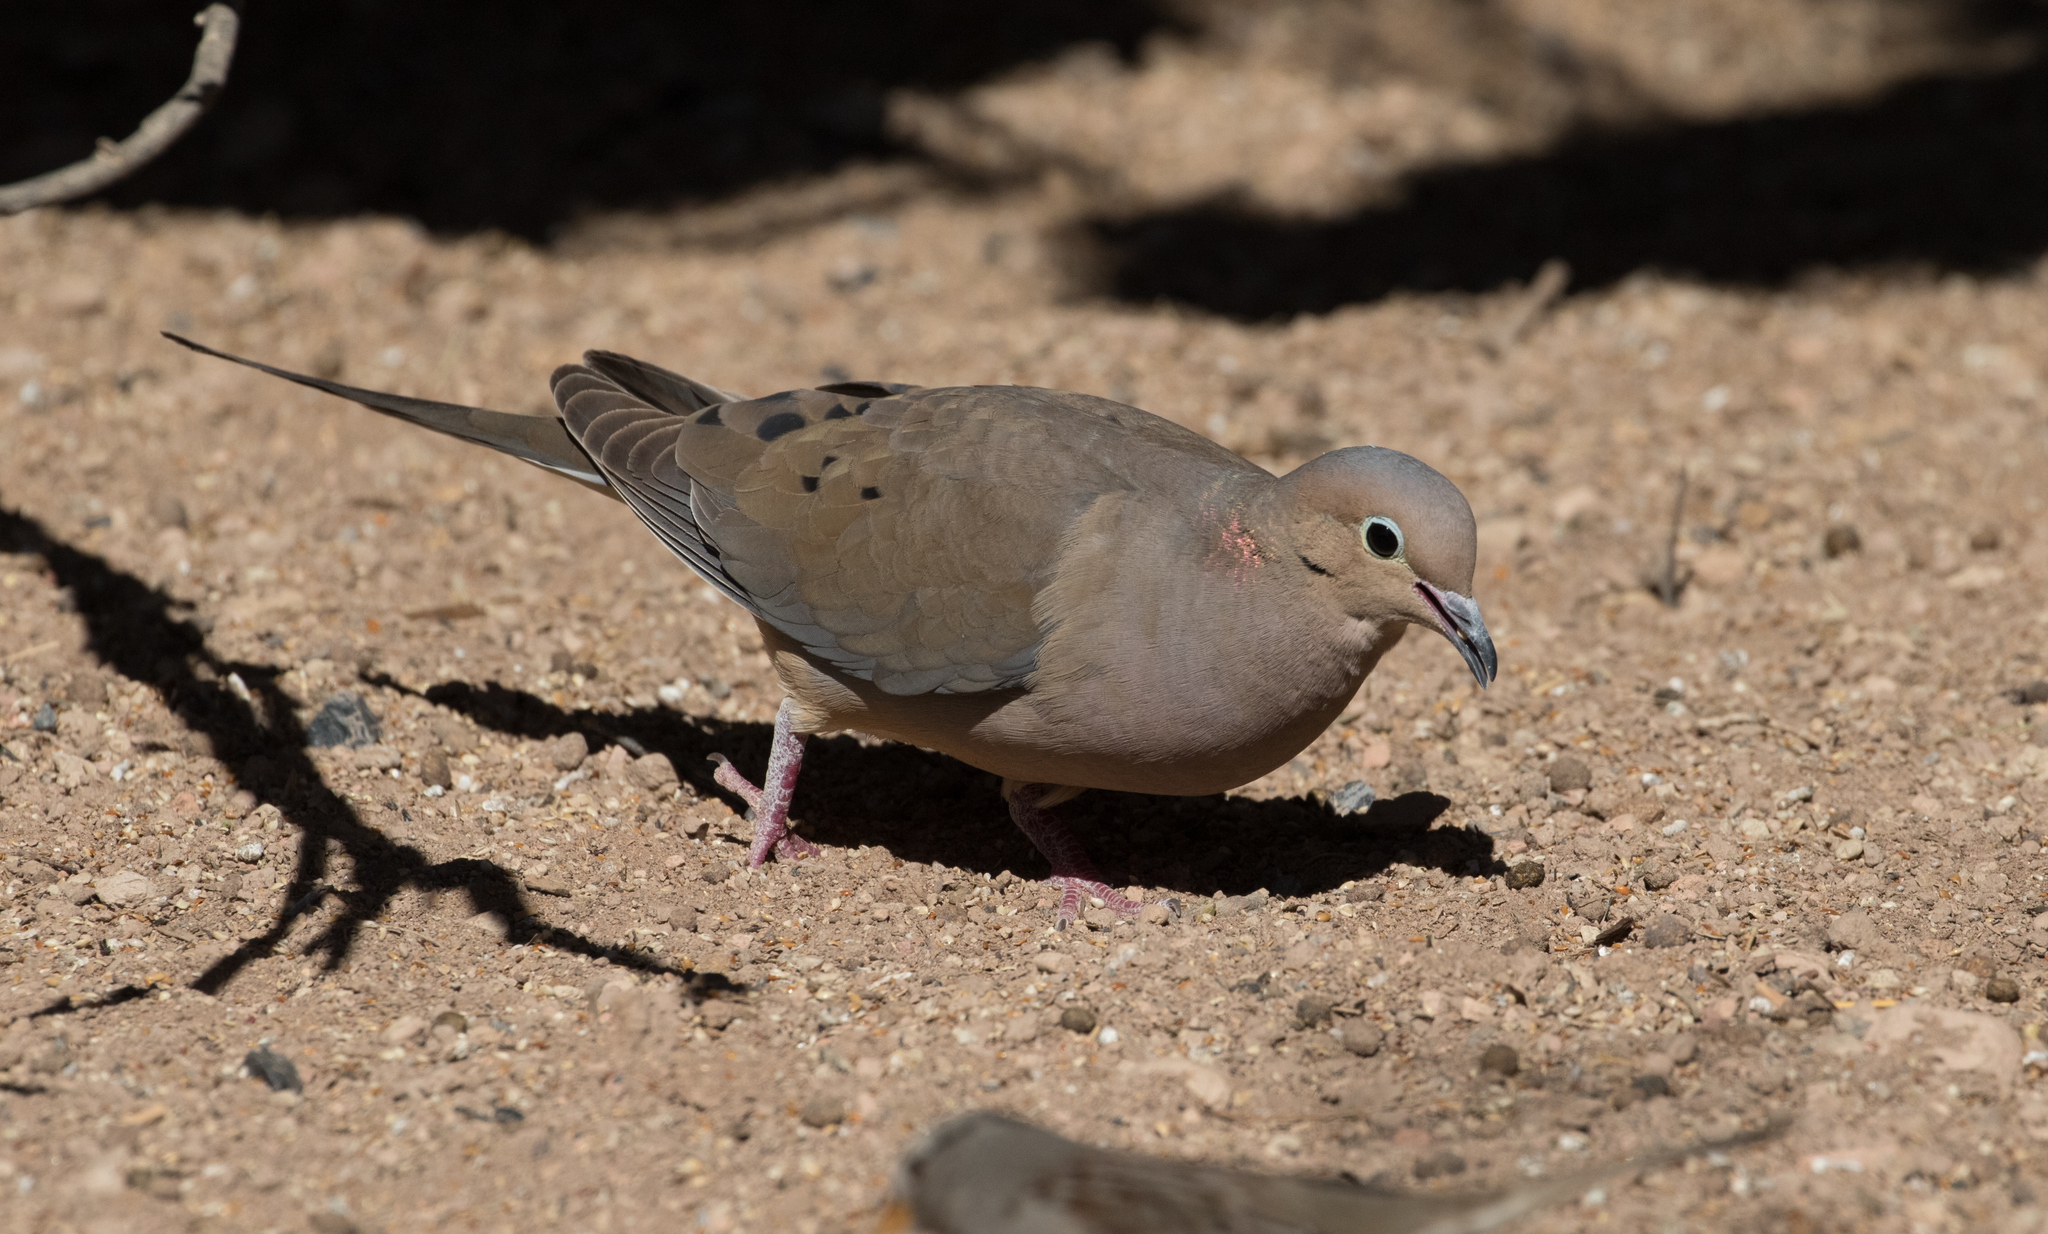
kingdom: Animalia
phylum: Chordata
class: Aves
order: Columbiformes
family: Columbidae
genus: Zenaida
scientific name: Zenaida macroura
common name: Mourning dove
